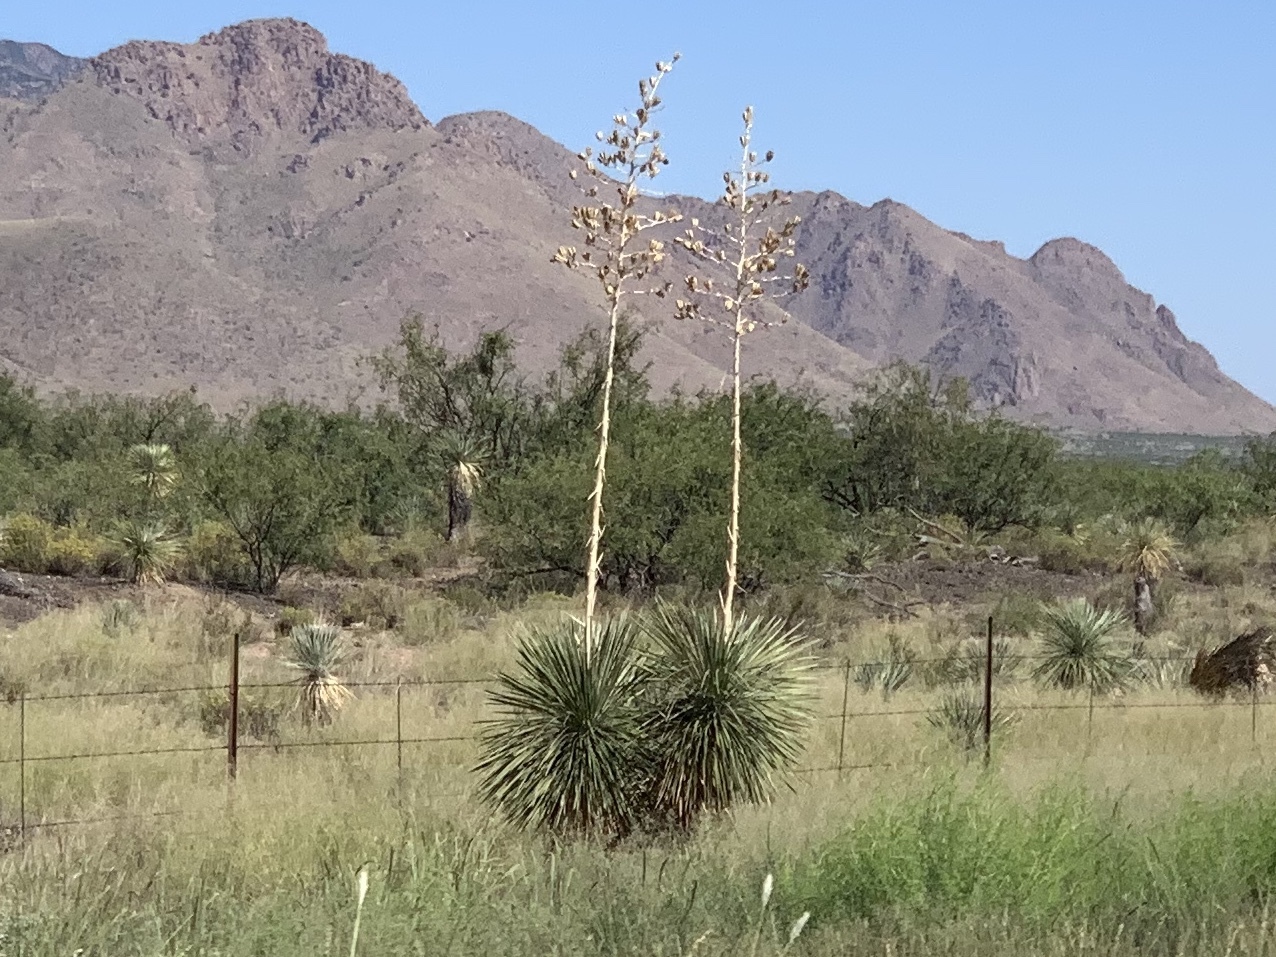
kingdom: Plantae
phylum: Tracheophyta
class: Liliopsida
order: Asparagales
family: Asparagaceae
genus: Yucca
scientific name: Yucca elata
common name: Palmella
